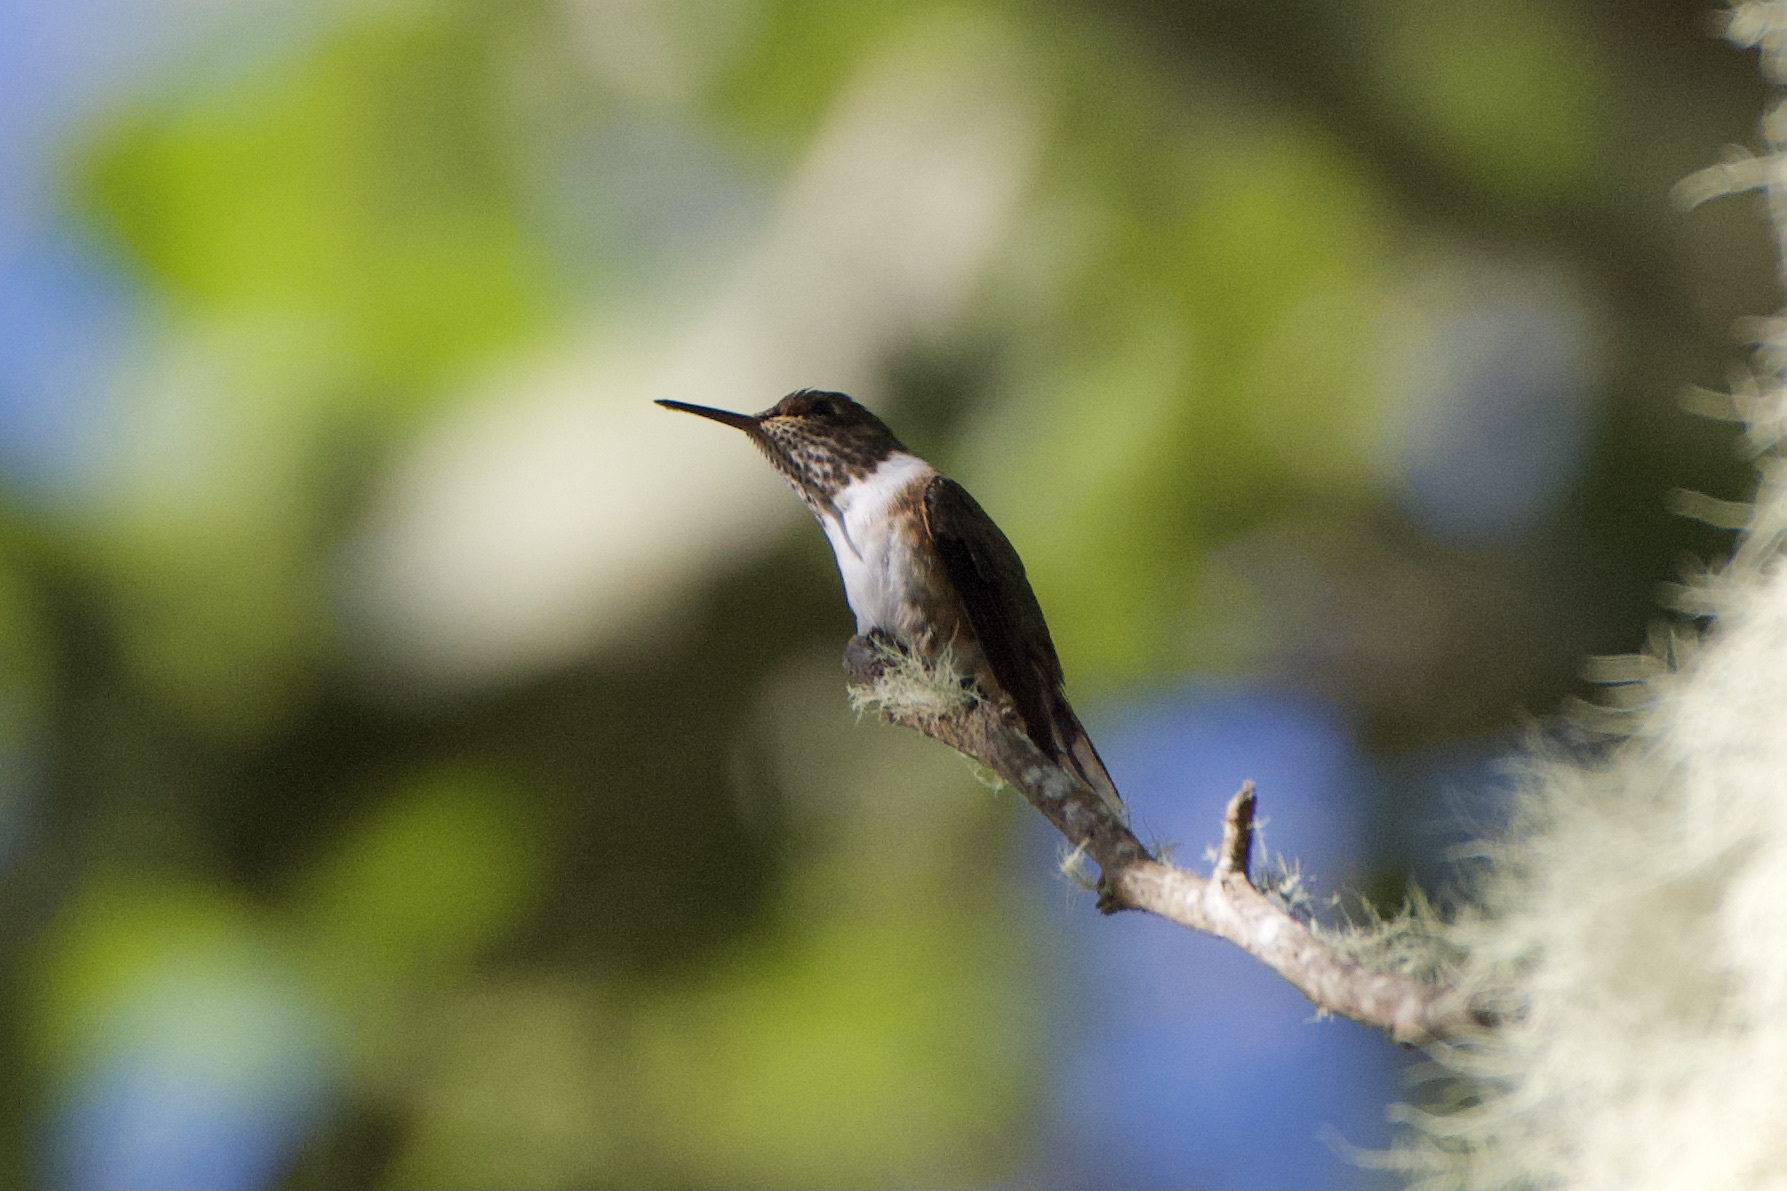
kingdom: Animalia
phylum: Chordata
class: Aves
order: Apodiformes
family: Trochilidae
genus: Selasphorus
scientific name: Selasphorus flammula
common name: Volcano hummingbird
